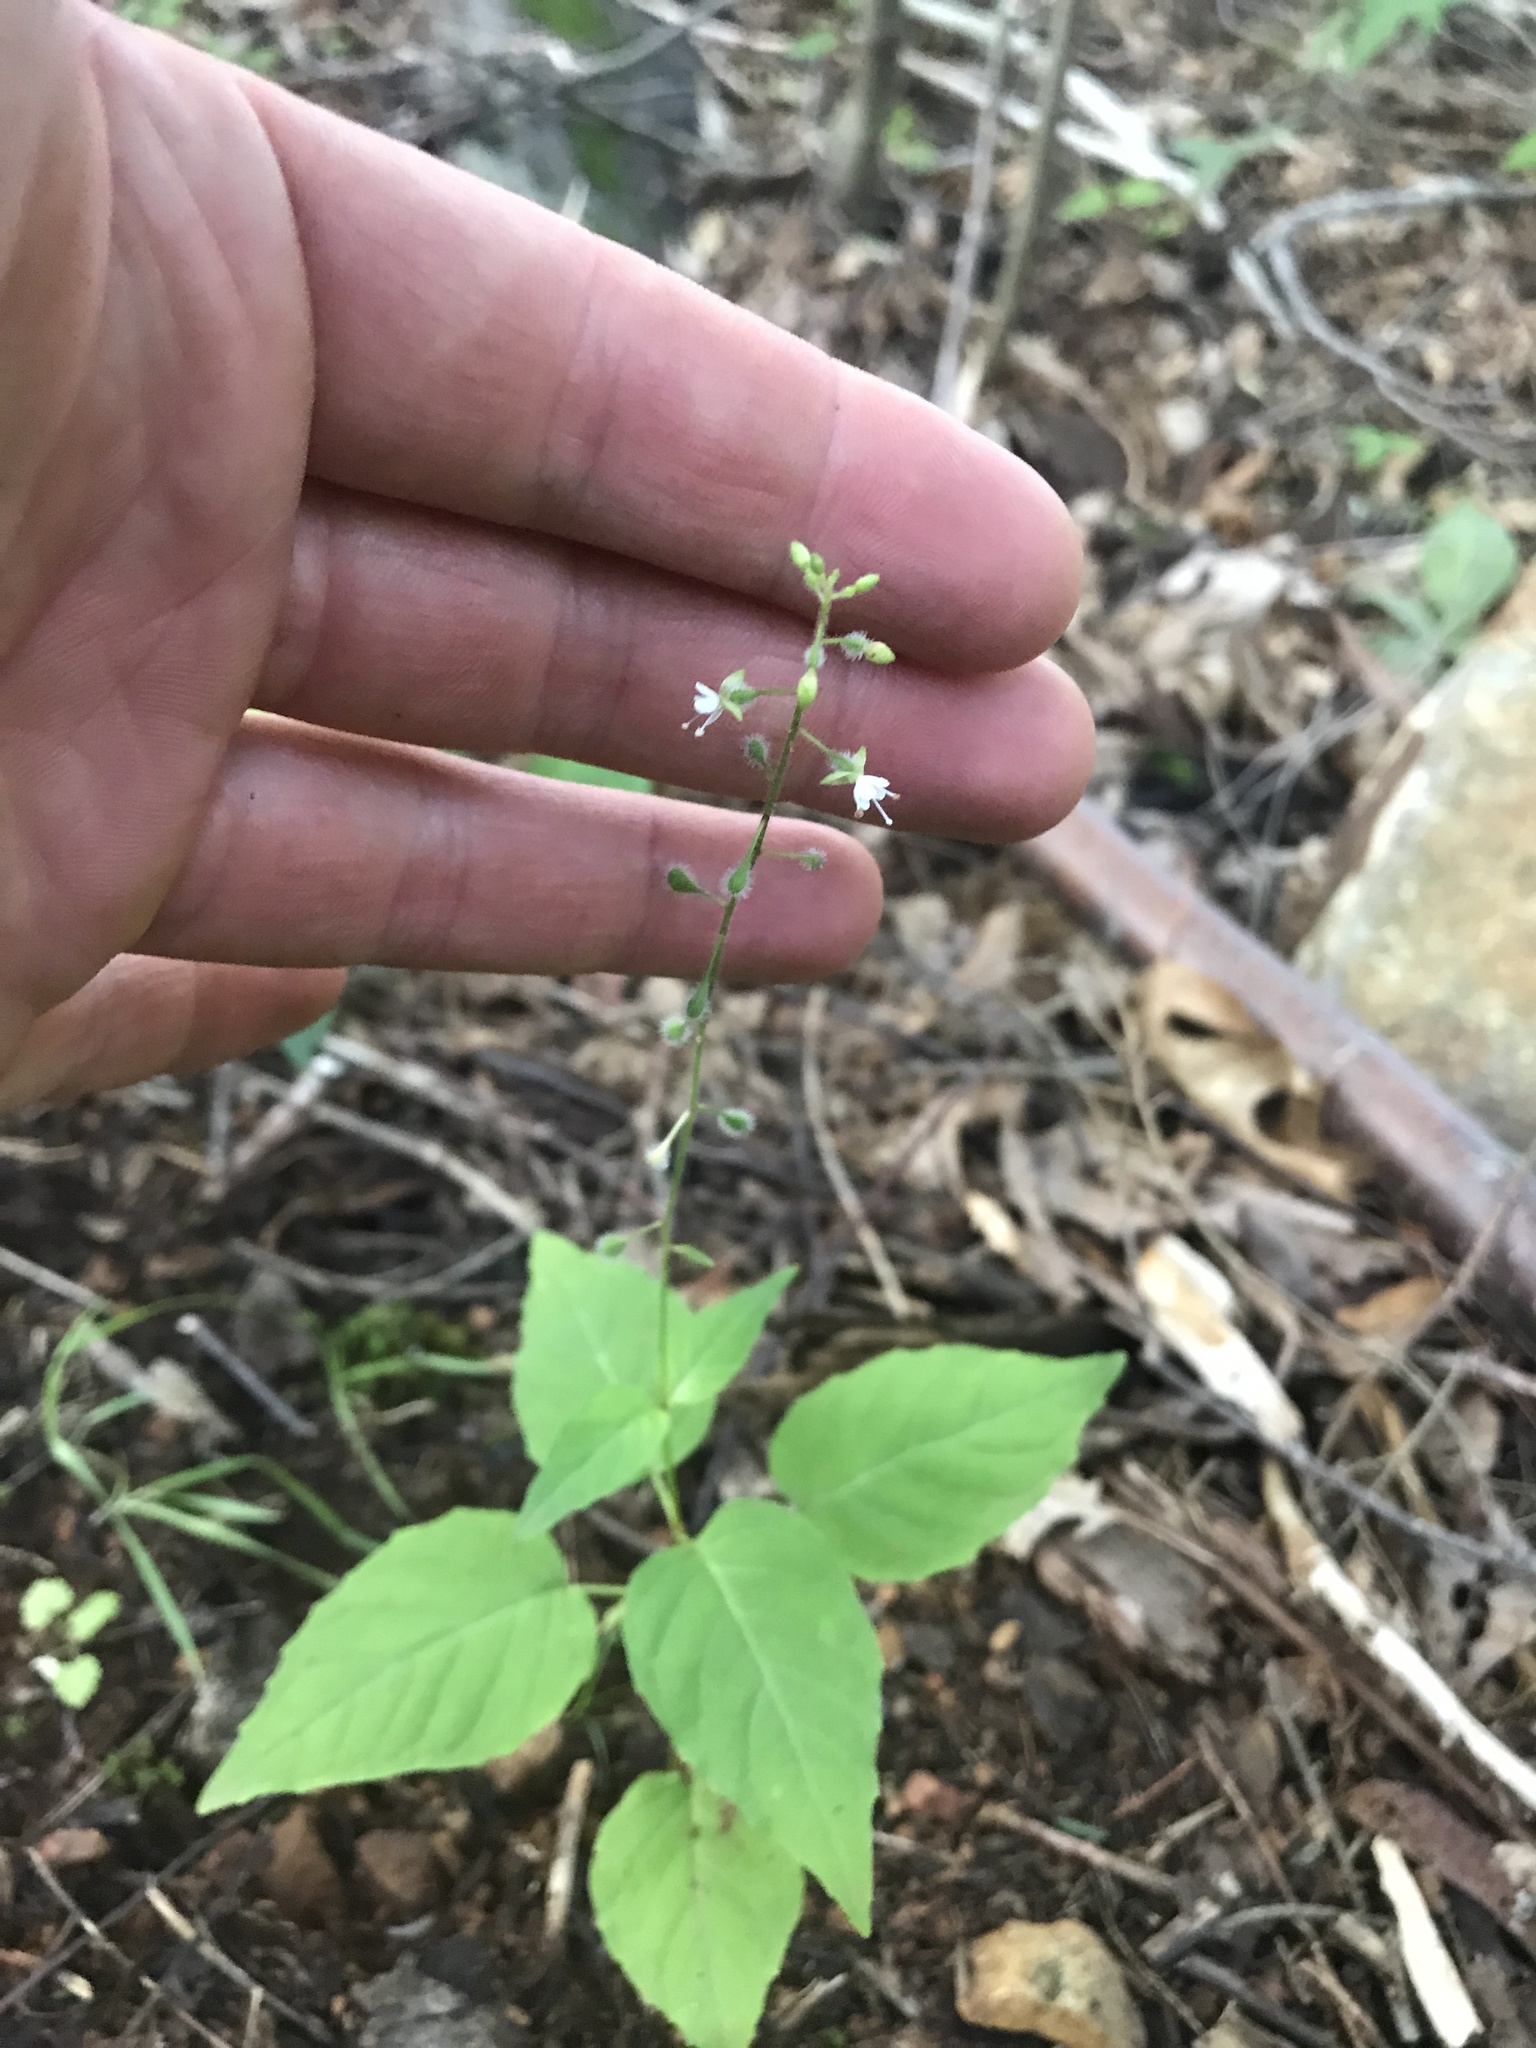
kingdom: Plantae
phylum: Tracheophyta
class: Magnoliopsida
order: Myrtales
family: Onagraceae
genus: Circaea
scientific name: Circaea canadensis
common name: Broad-leaved enchanter's nightshade
